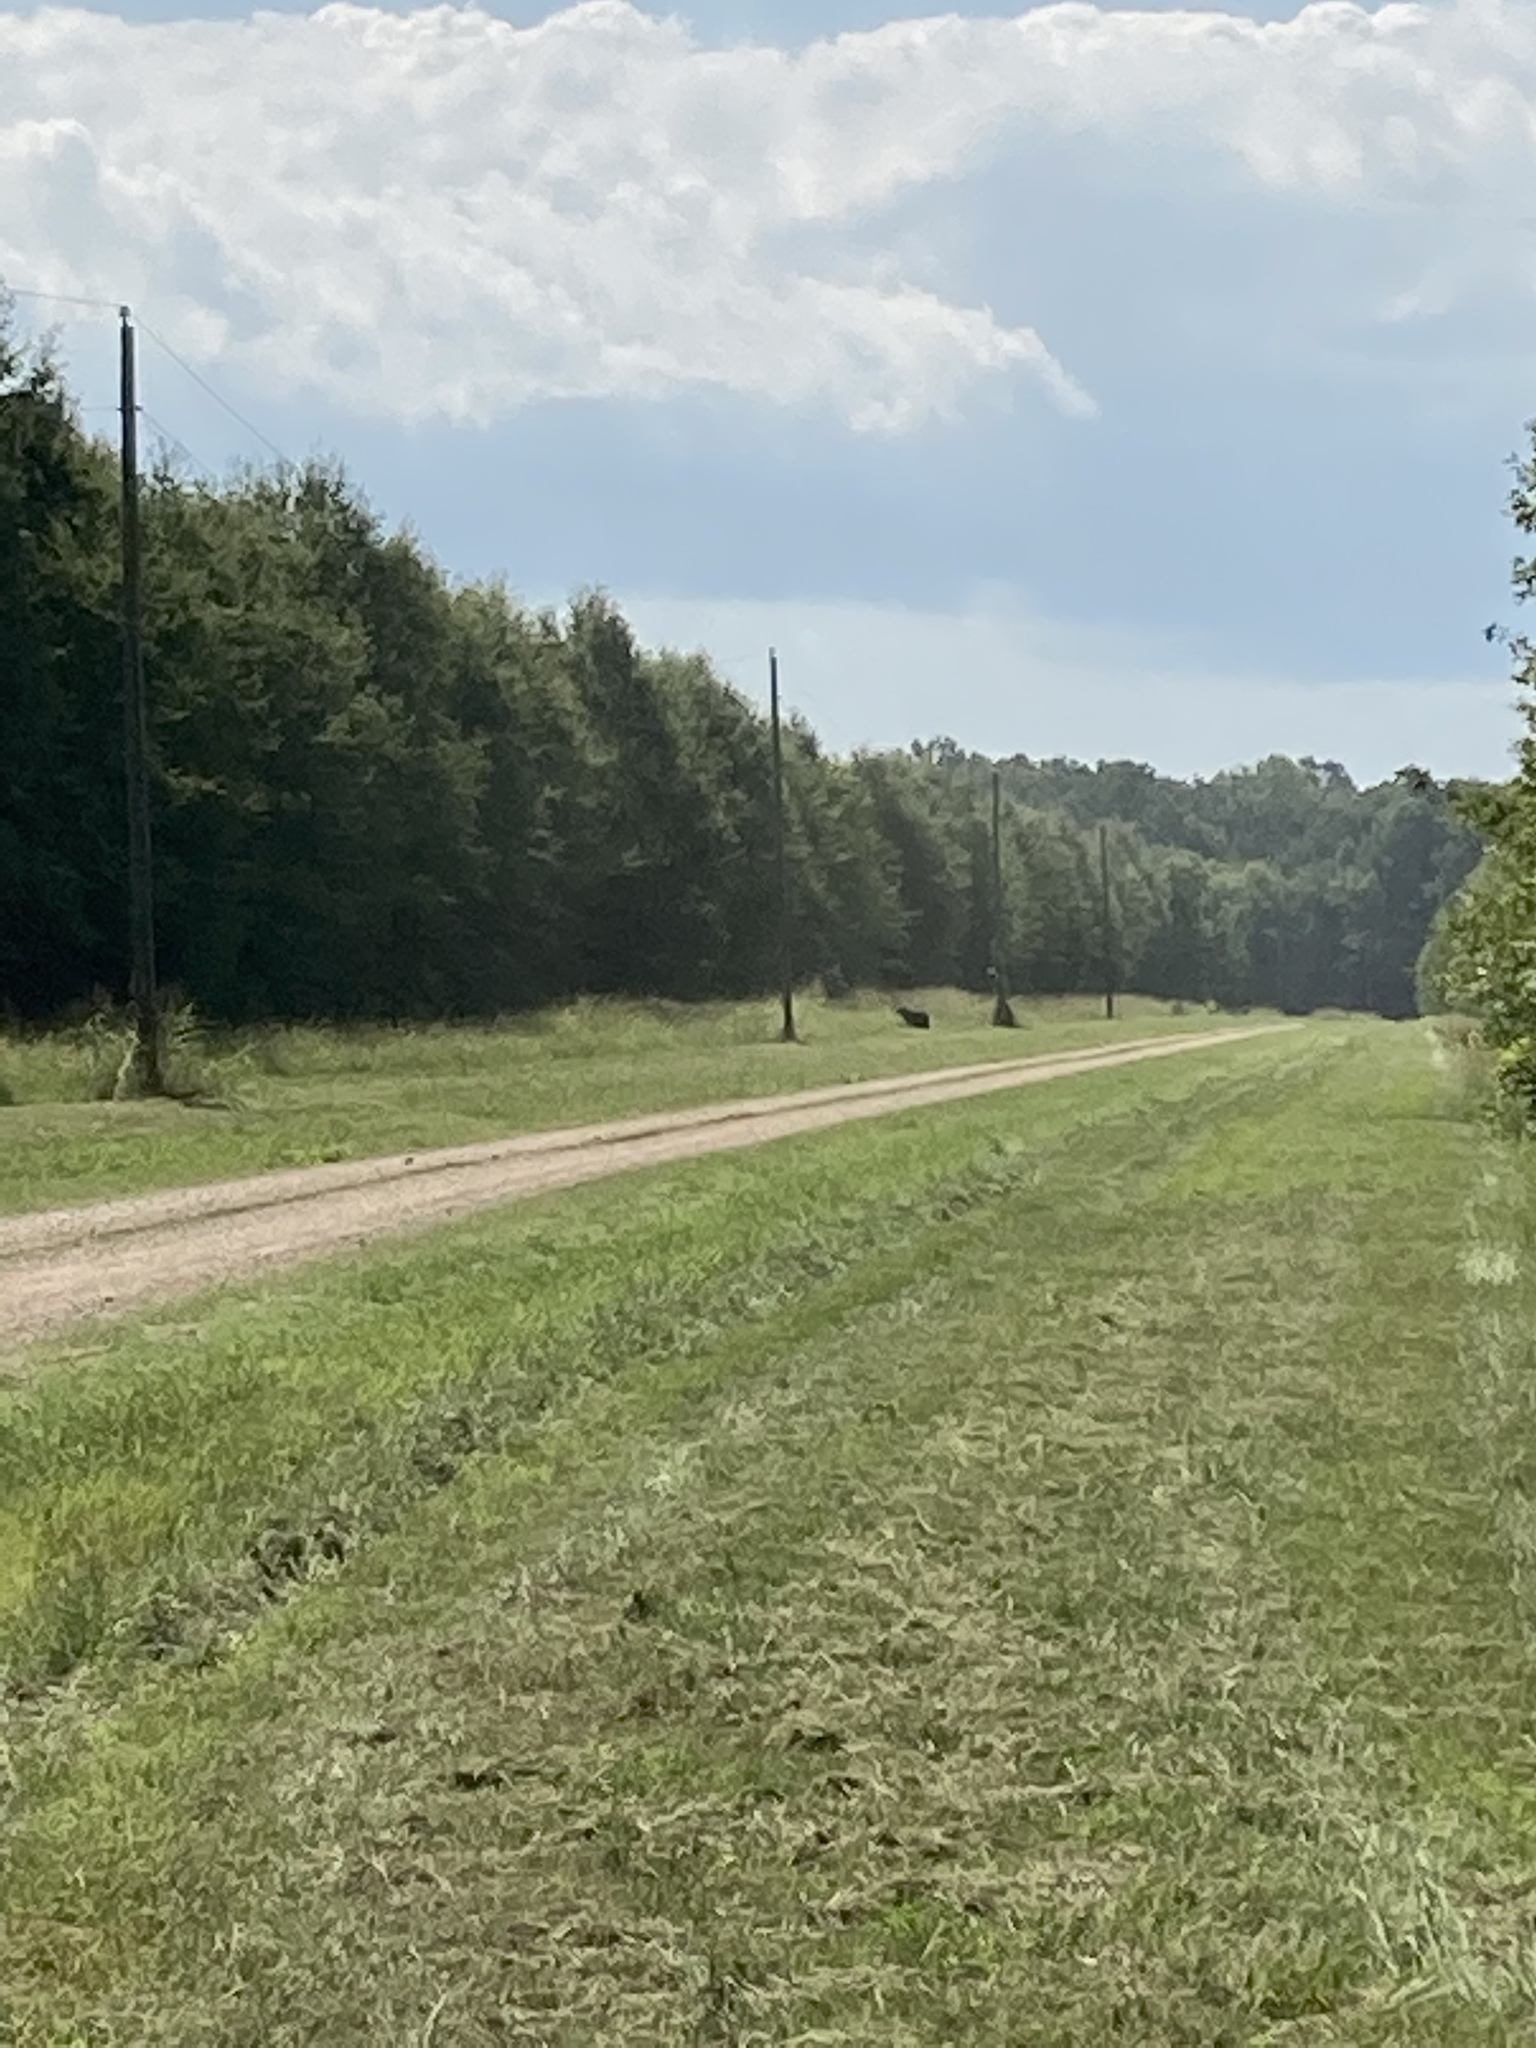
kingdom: Animalia
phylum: Chordata
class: Mammalia
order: Carnivora
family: Ursidae
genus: Ursus
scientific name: Ursus americanus
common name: American black bear
